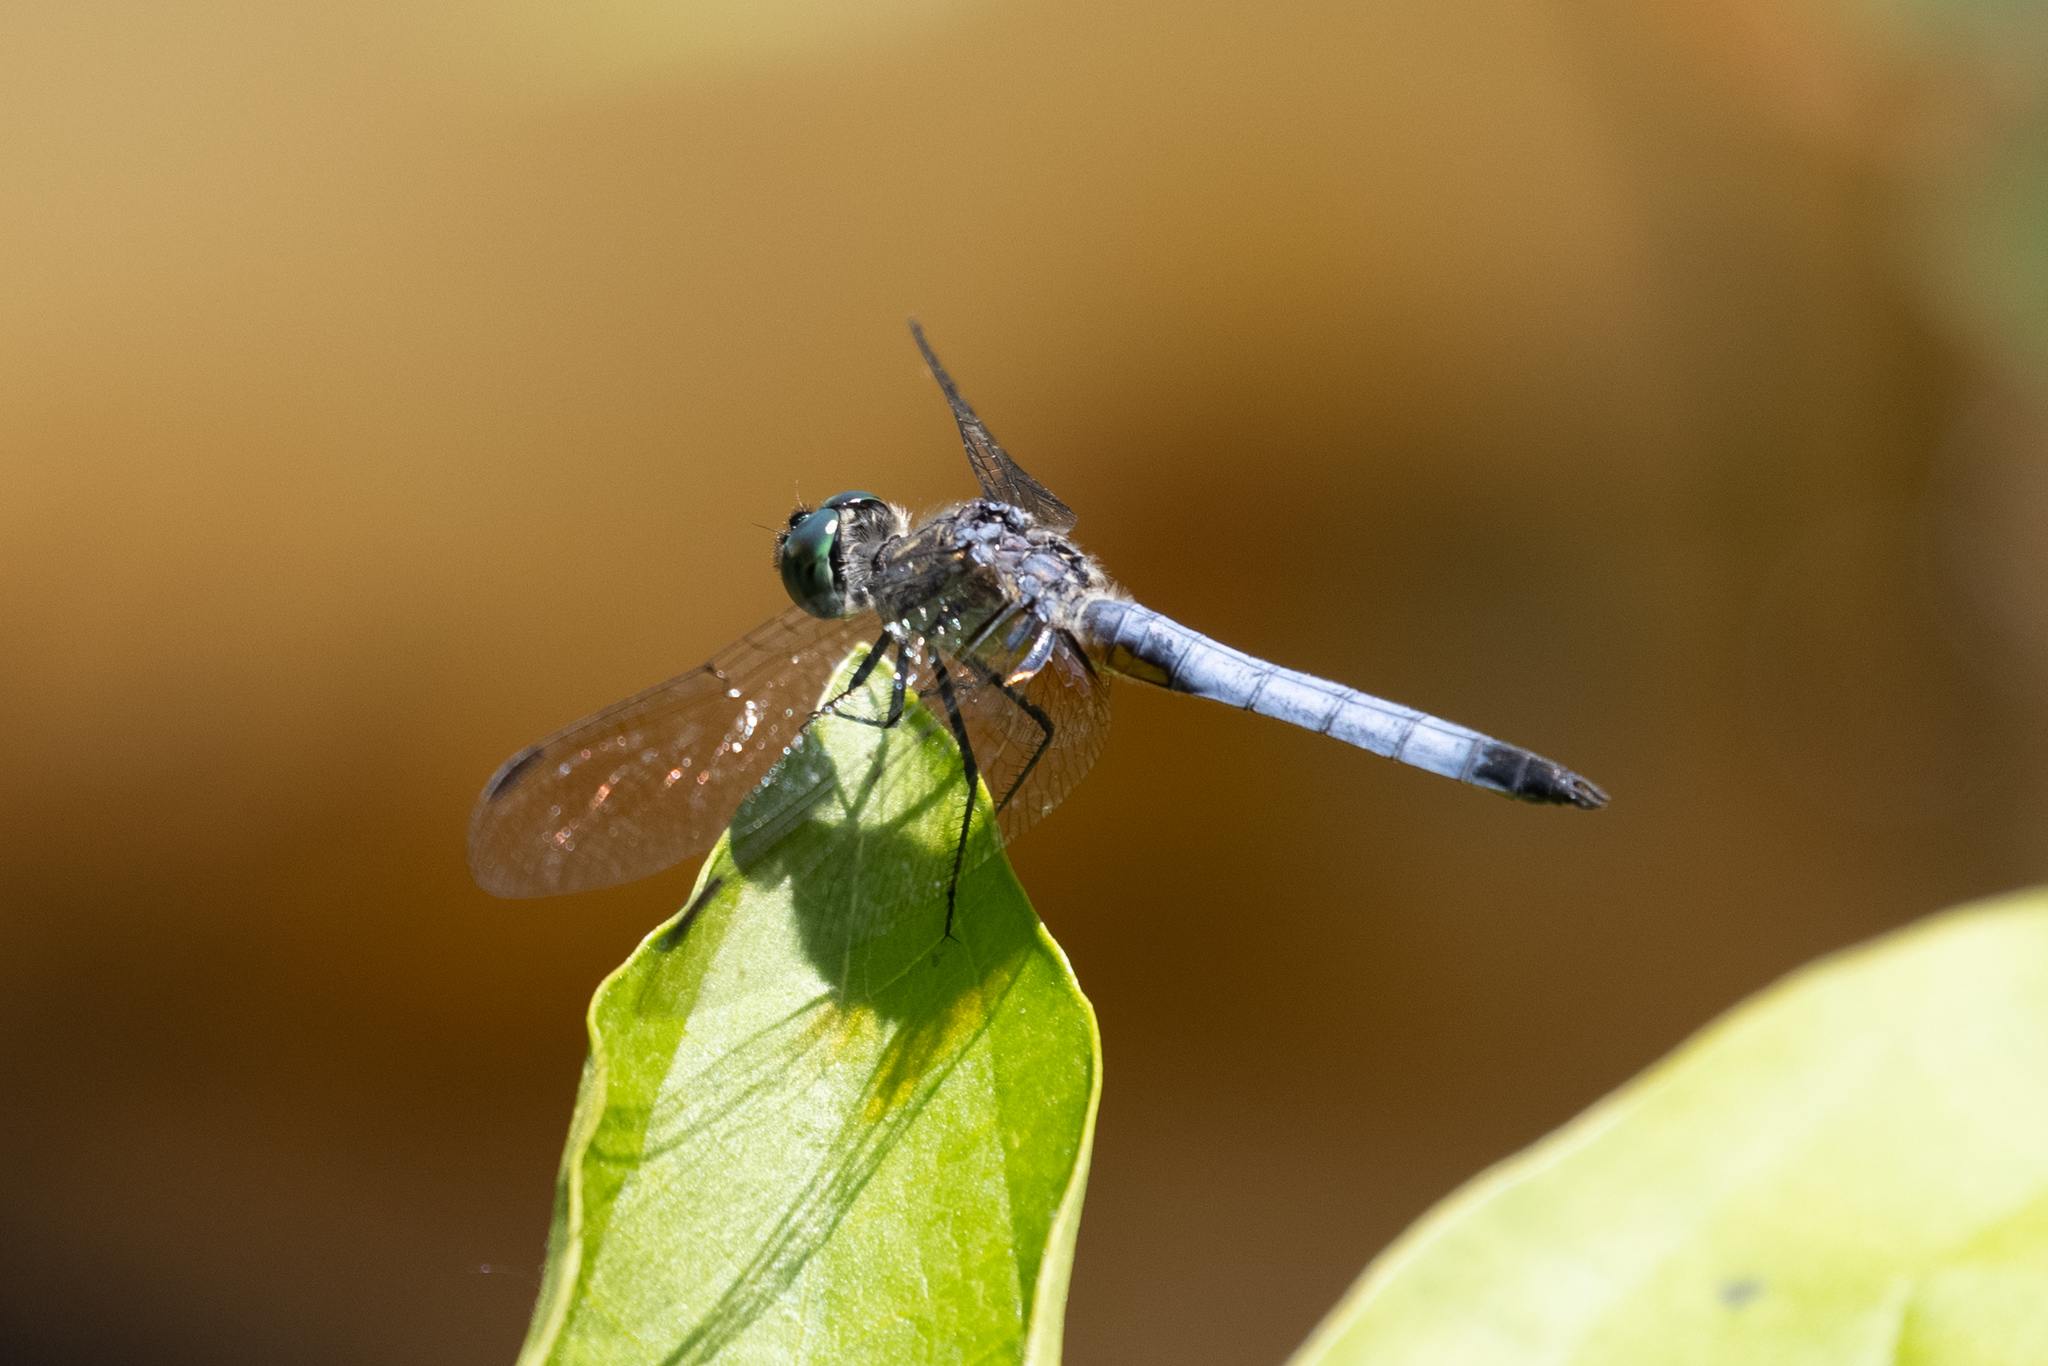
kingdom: Animalia
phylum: Arthropoda
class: Insecta
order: Odonata
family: Libellulidae
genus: Pachydiplax
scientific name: Pachydiplax longipennis
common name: Blue dasher
